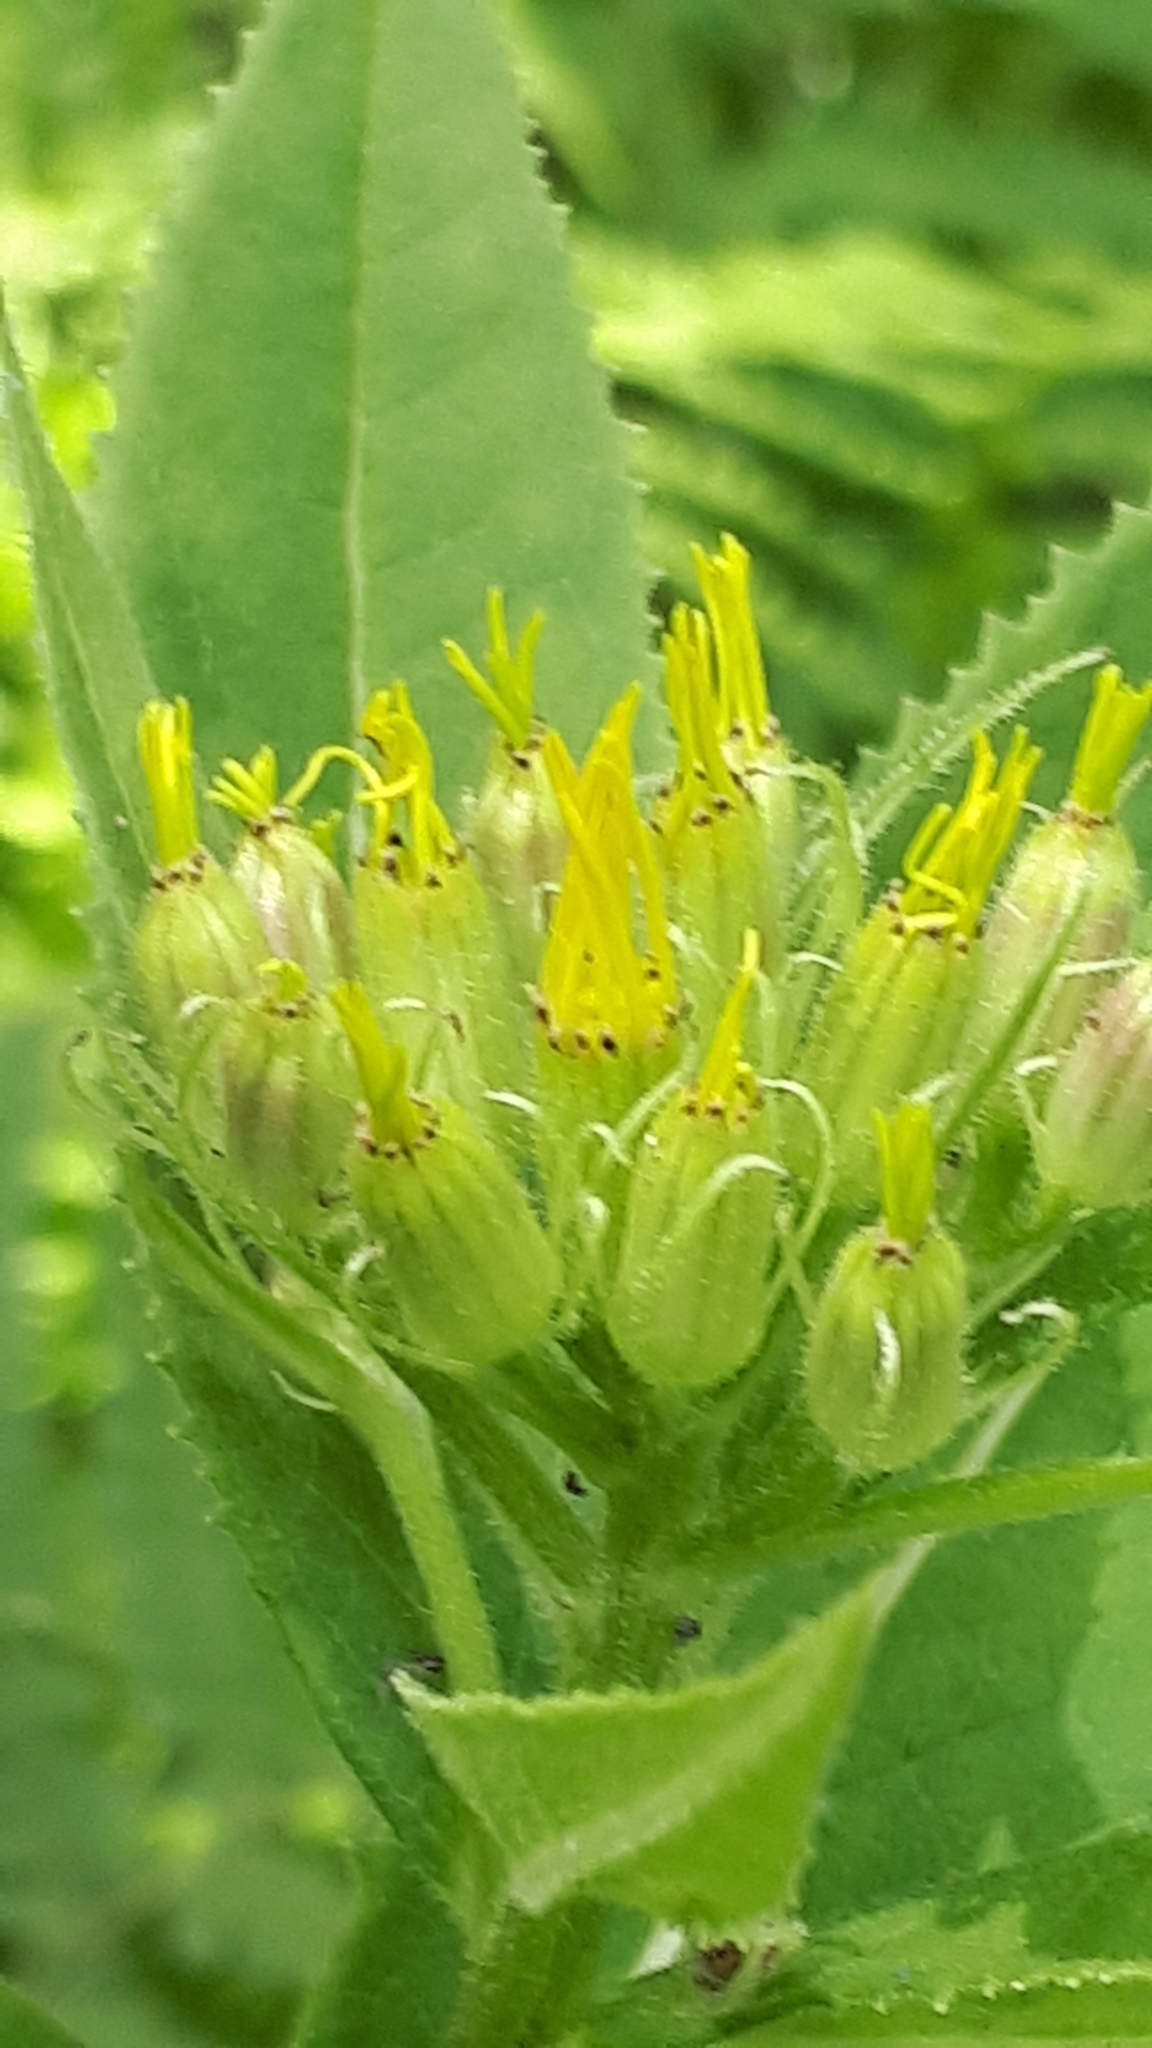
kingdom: Plantae
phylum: Tracheophyta
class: Magnoliopsida
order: Asterales
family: Asteraceae
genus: Senecio
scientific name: Senecio hercynicus
